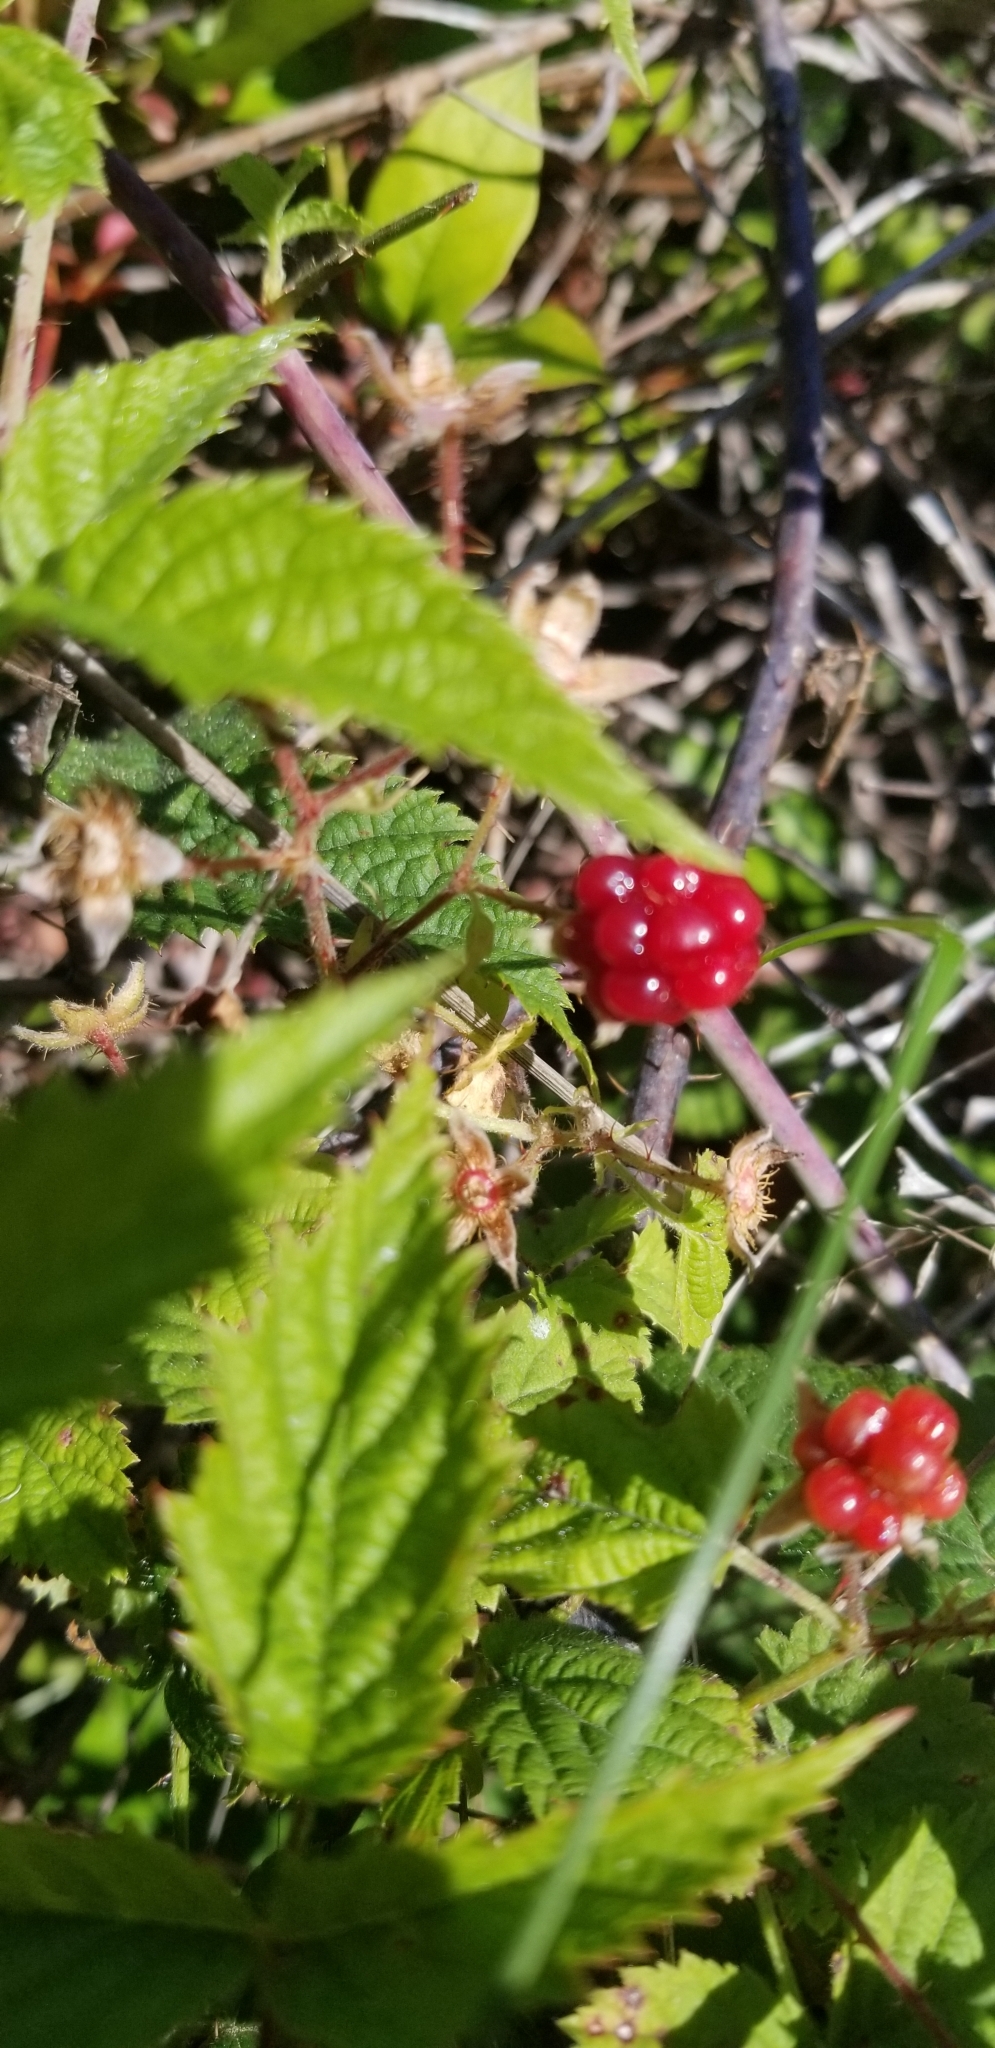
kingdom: Plantae
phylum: Tracheophyta
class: Magnoliopsida
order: Rosales
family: Rosaceae
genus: Rubus
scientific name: Rubus ursinus
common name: Pacific blackberry
